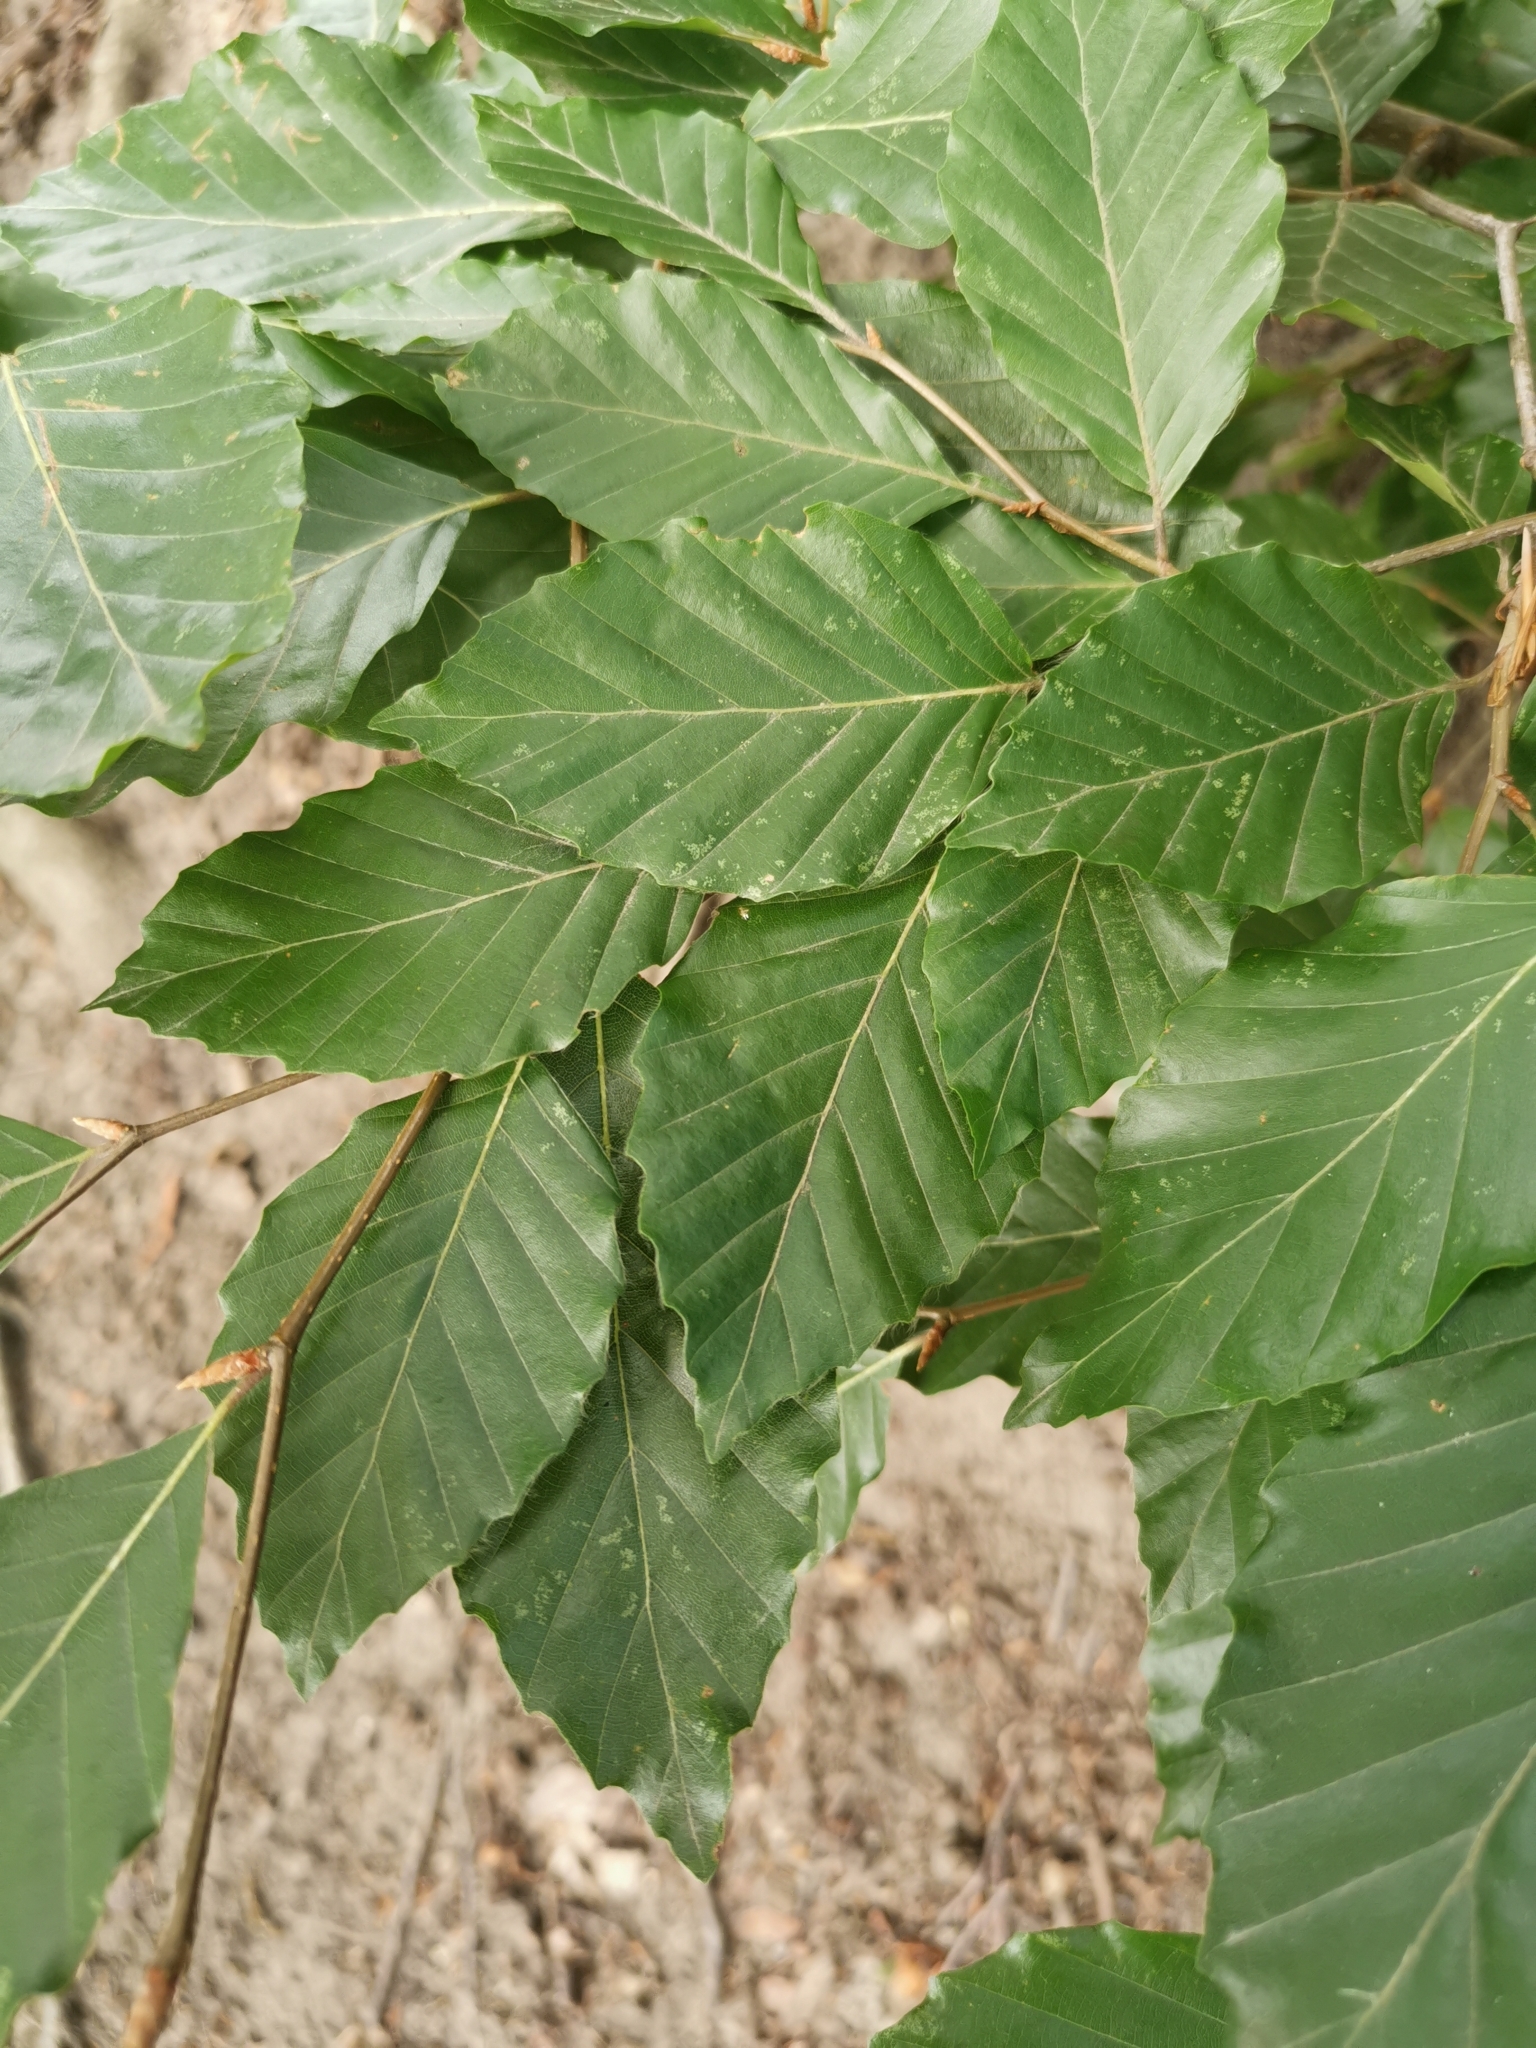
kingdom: Plantae
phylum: Tracheophyta
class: Magnoliopsida
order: Fagales
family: Fagaceae
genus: Fagus
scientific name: Fagus sylvatica
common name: Beech
